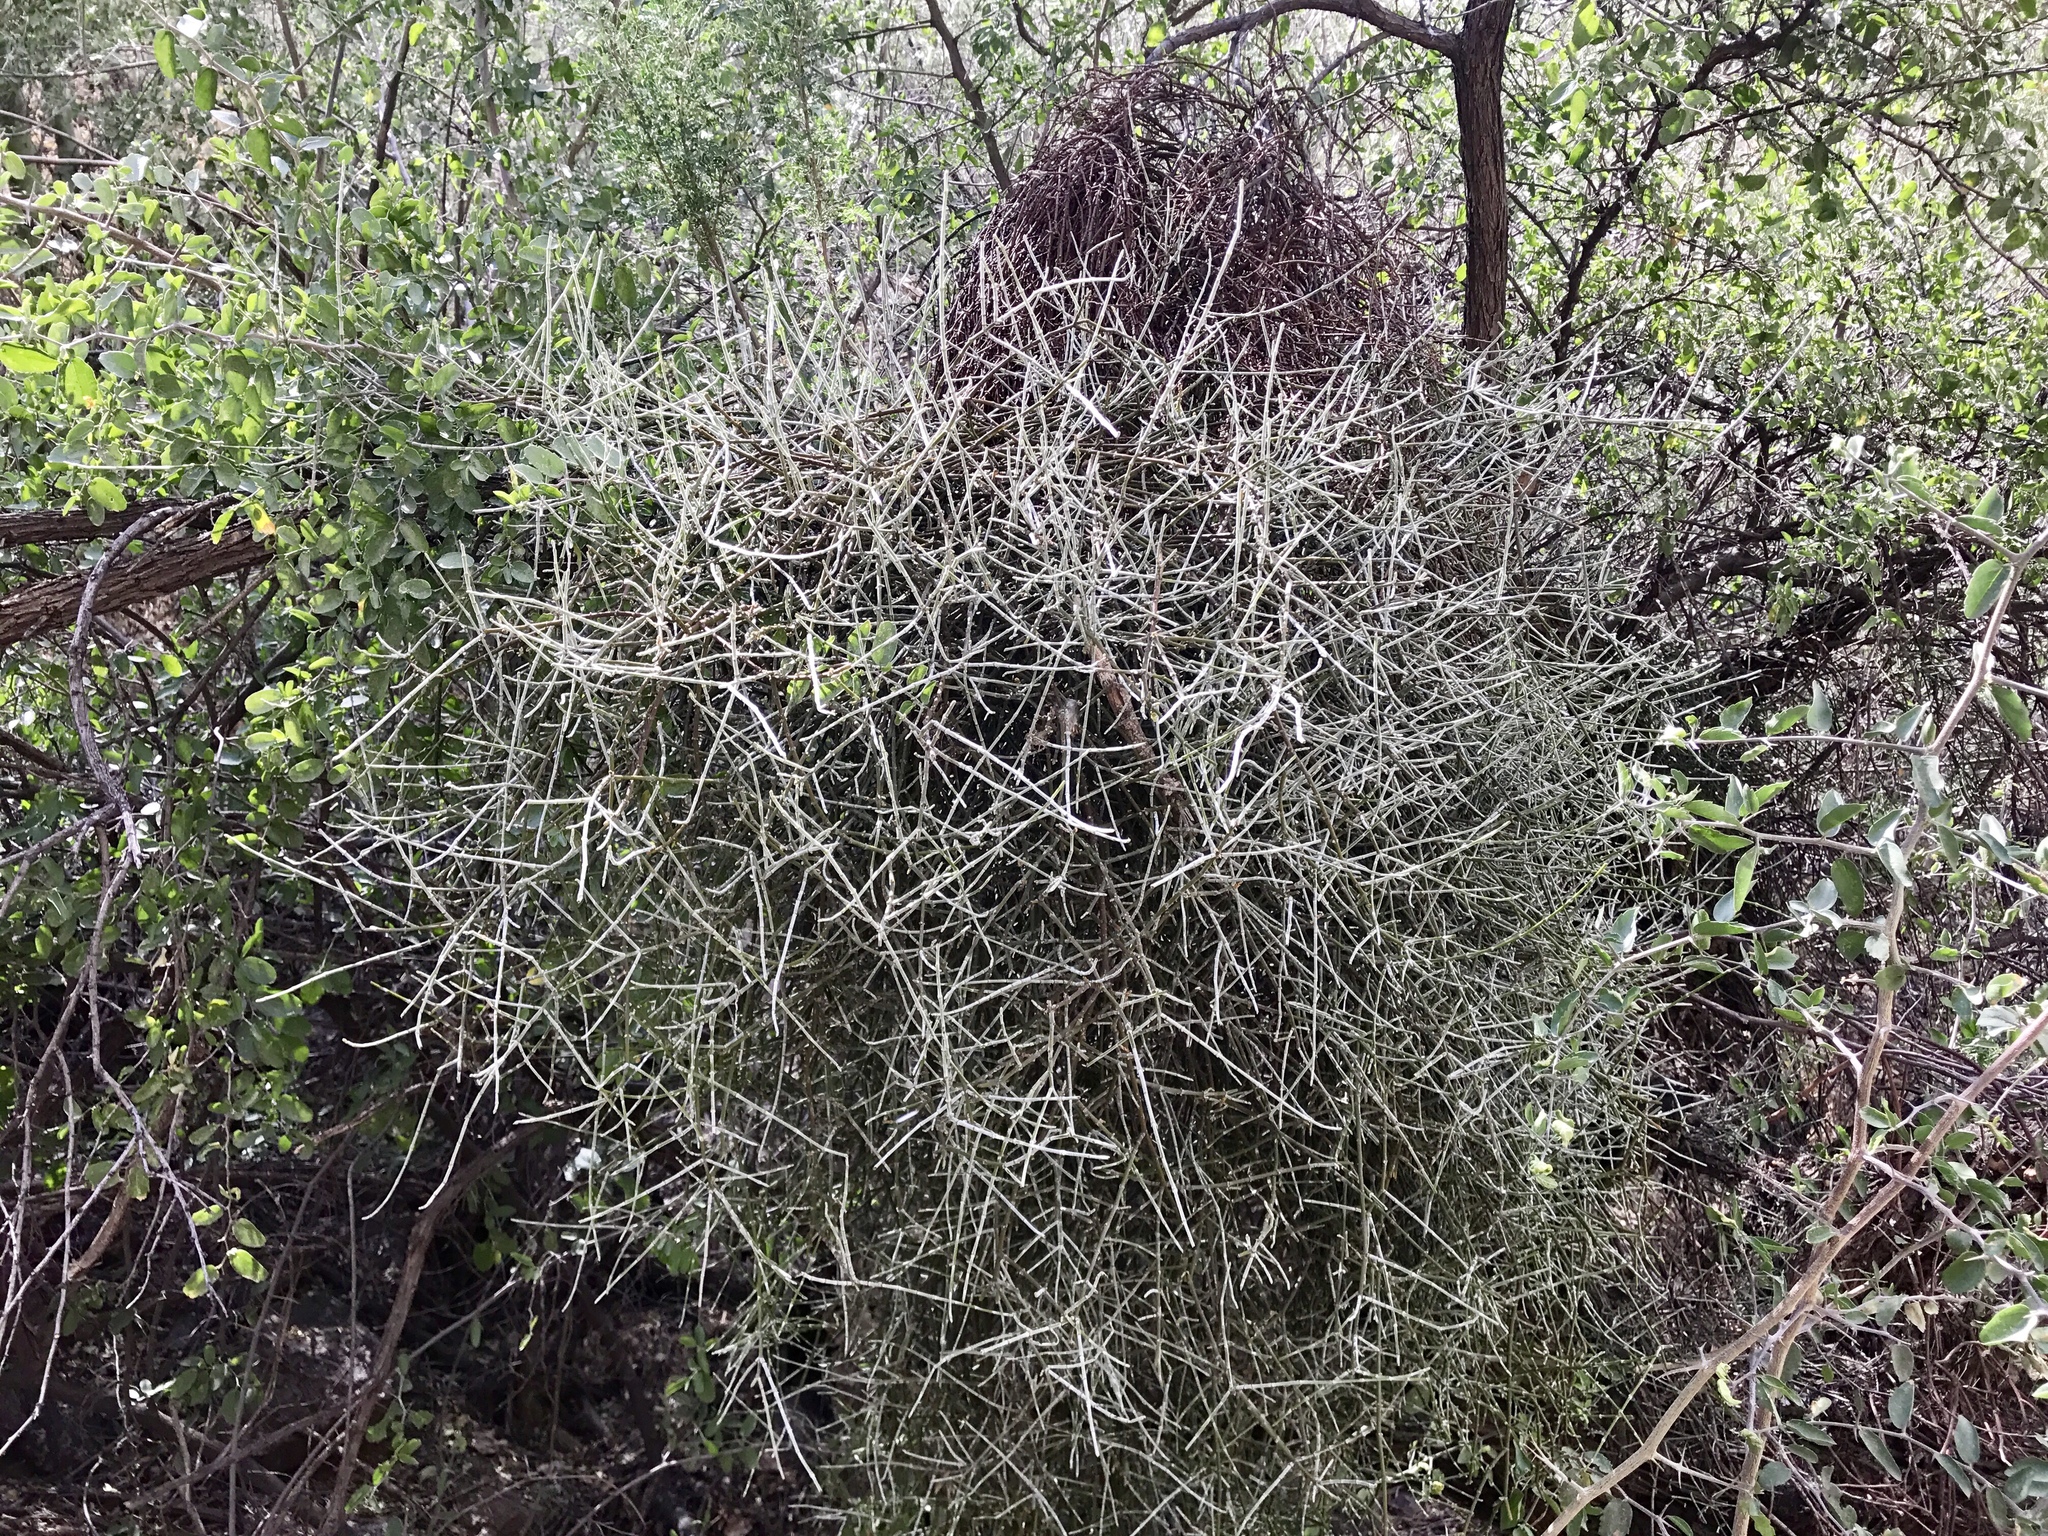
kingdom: Plantae
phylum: Tracheophyta
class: Magnoliopsida
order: Santalales
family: Viscaceae
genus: Phoradendron
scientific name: Phoradendron californicum
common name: Acacia mistletoe
